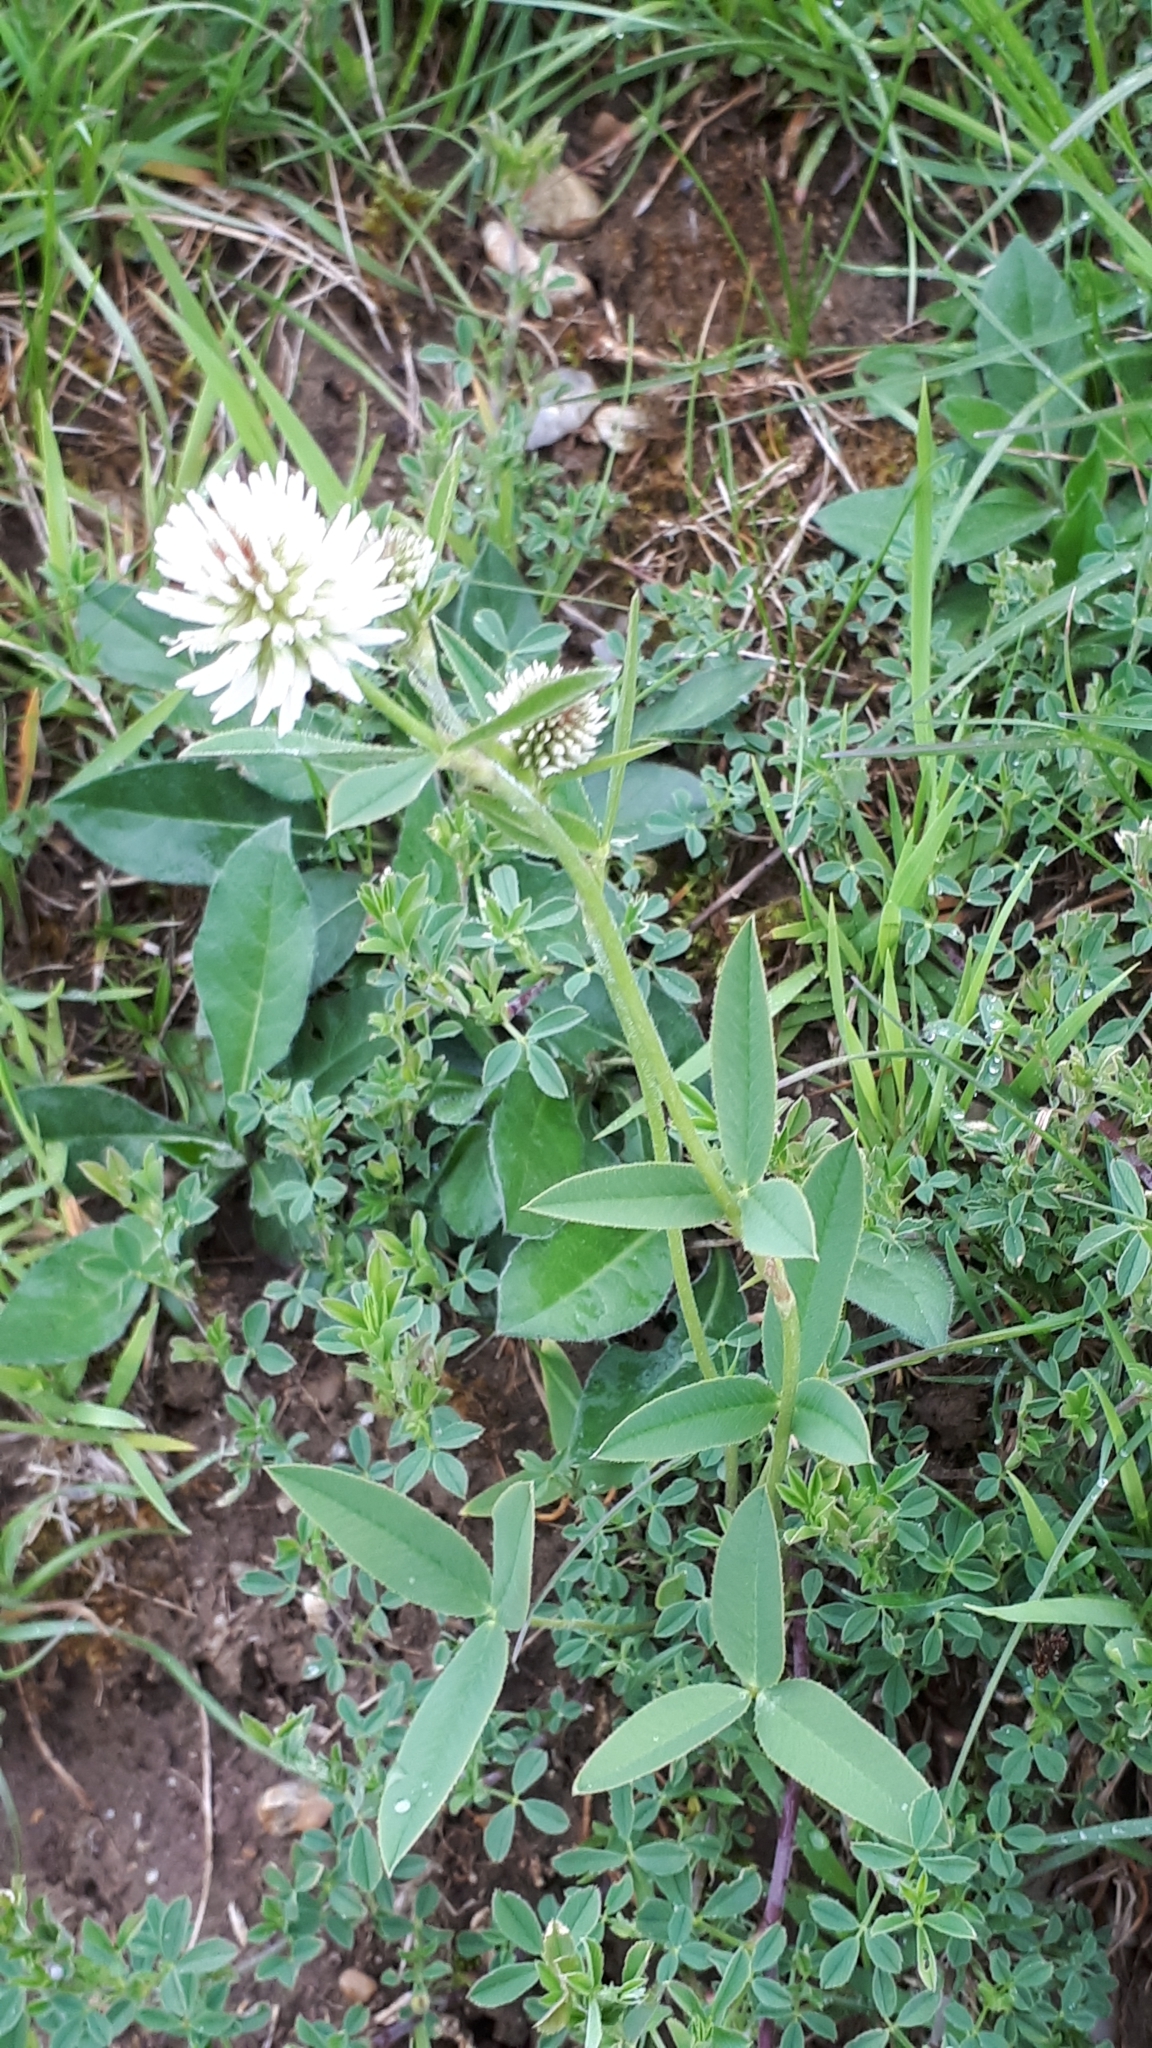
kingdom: Plantae
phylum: Tracheophyta
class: Magnoliopsida
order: Fabales
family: Fabaceae
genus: Trifolium
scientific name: Trifolium montanum
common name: Mountain clover
